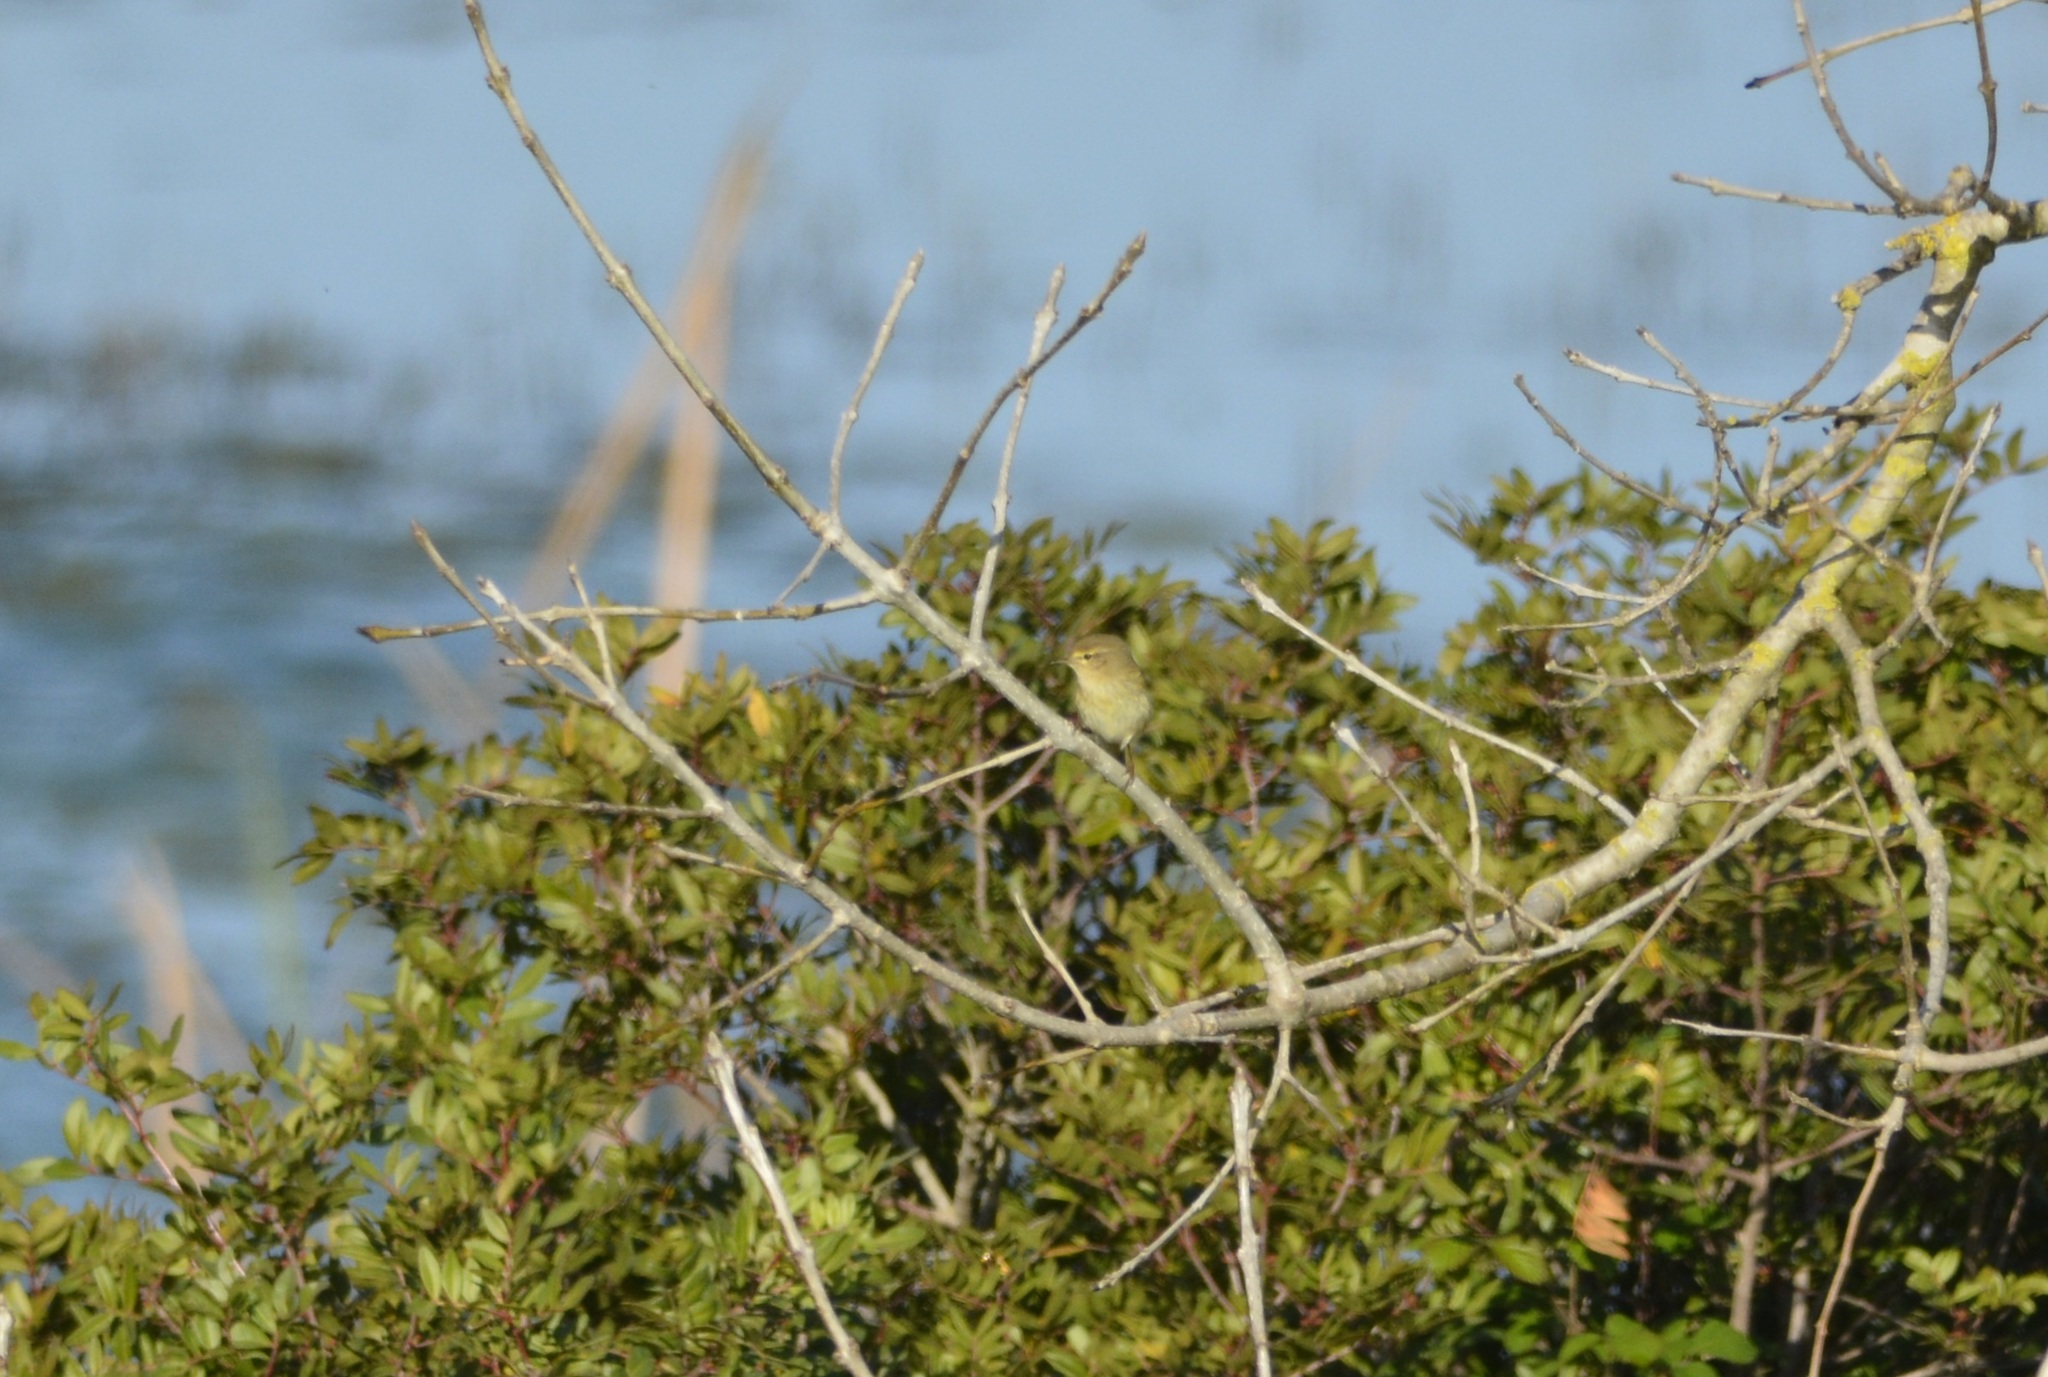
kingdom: Animalia
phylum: Chordata
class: Aves
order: Passeriformes
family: Phylloscopidae
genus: Phylloscopus
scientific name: Phylloscopus collybita
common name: Common chiffchaff
